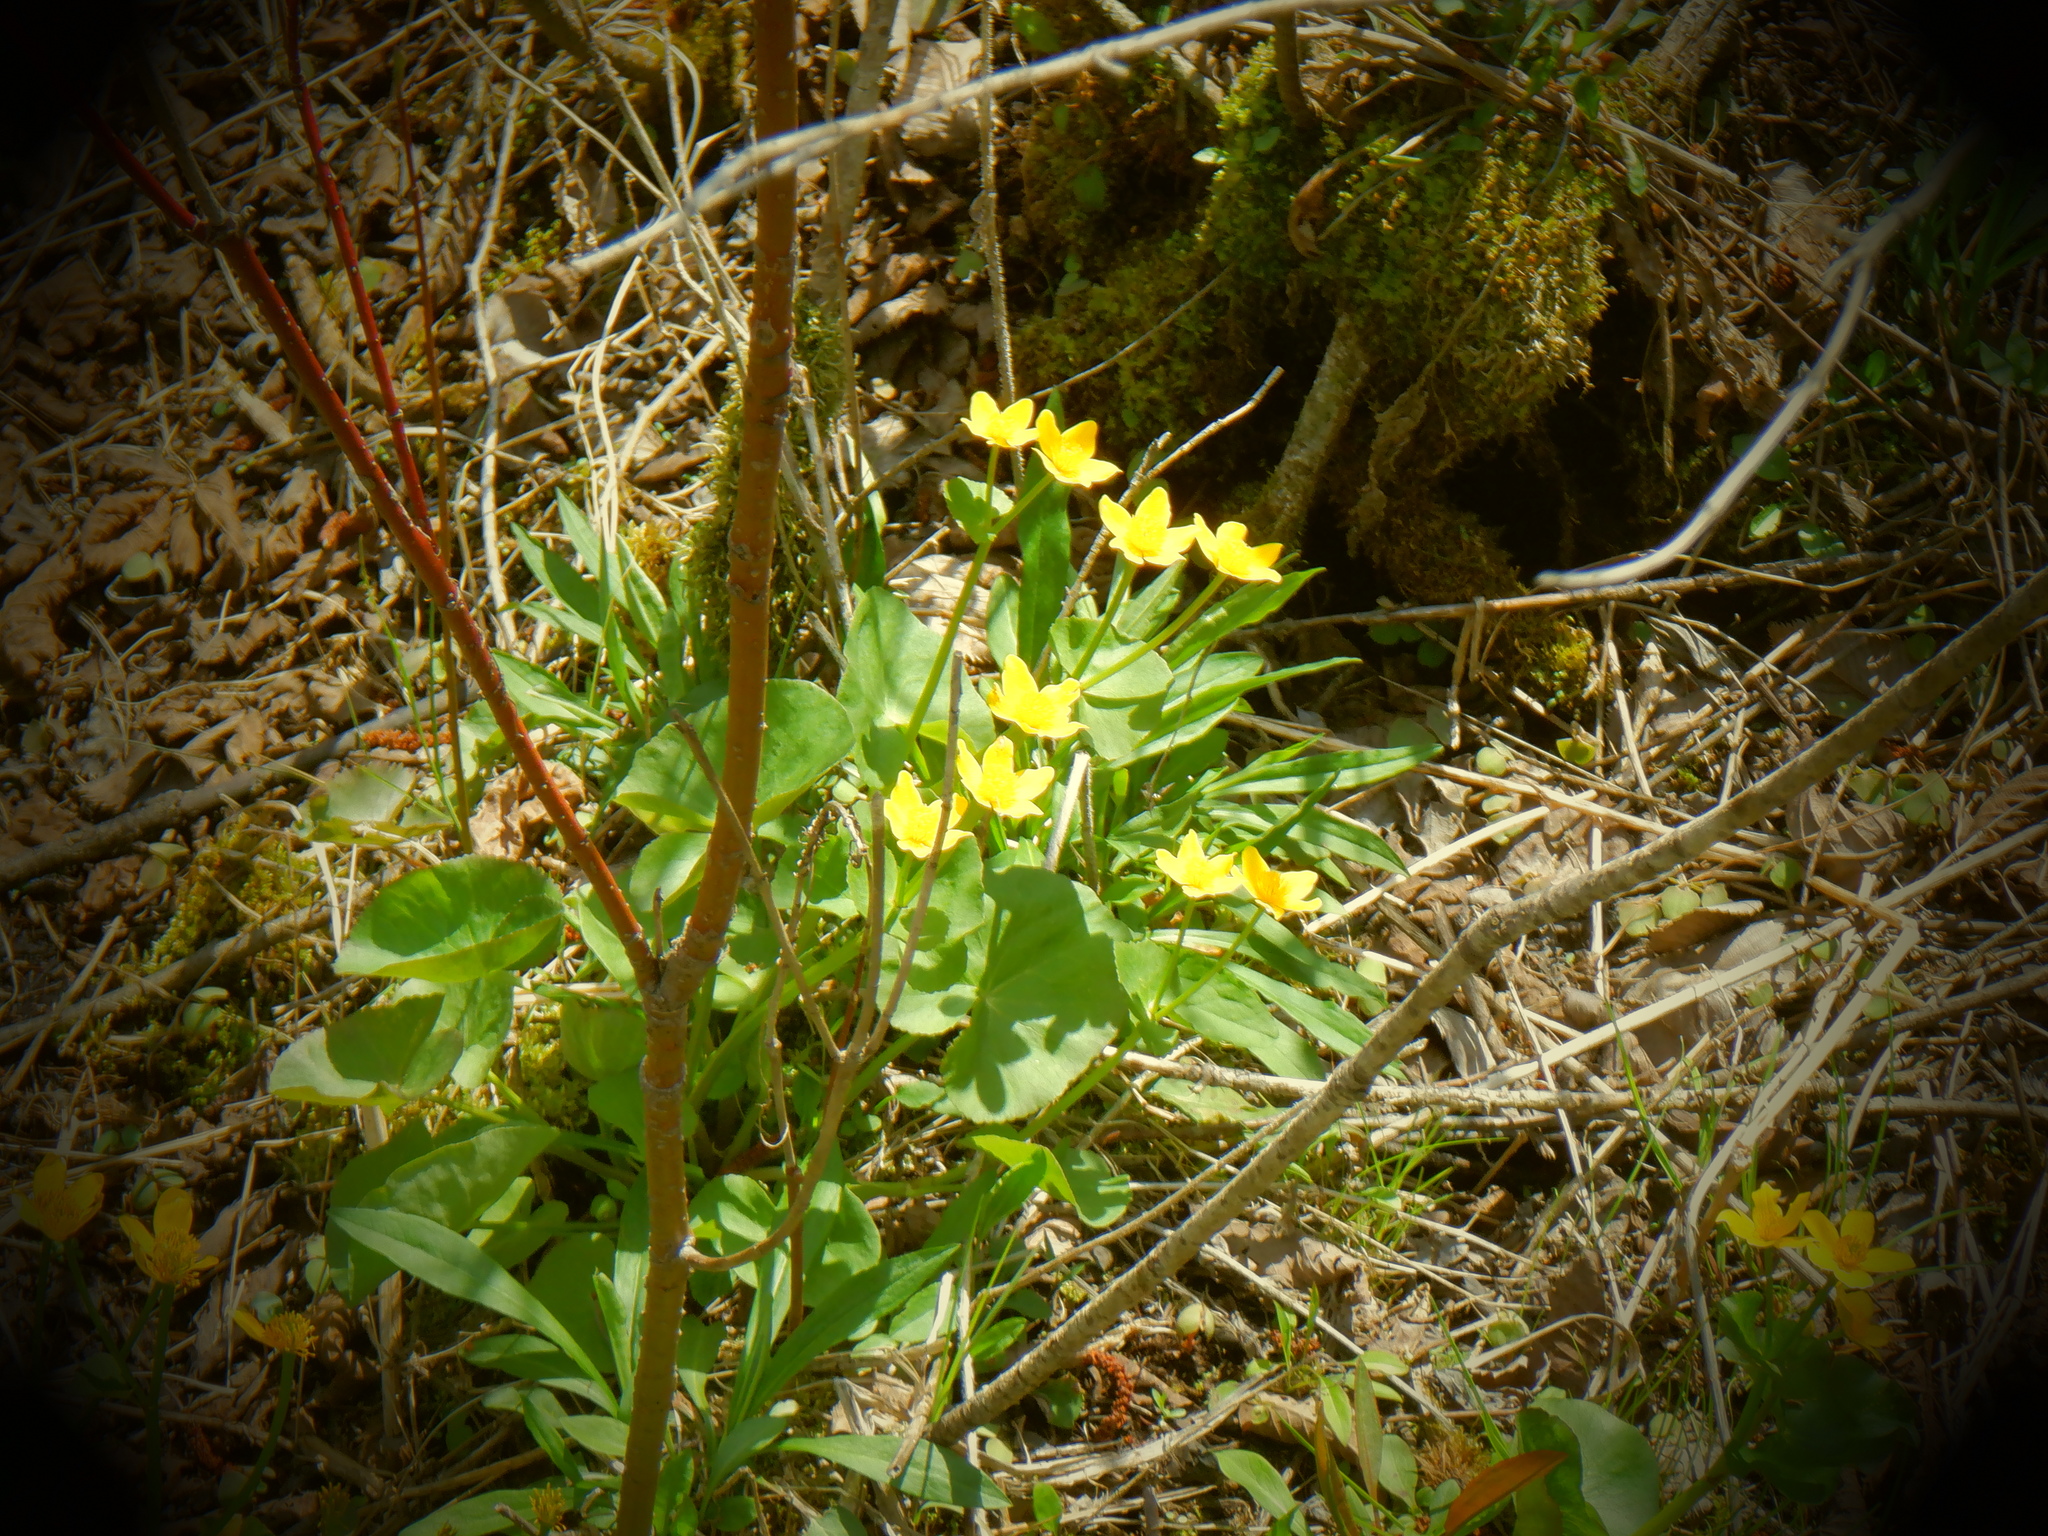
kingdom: Plantae
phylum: Tracheophyta
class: Magnoliopsida
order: Ranunculales
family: Ranunculaceae
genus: Caltha
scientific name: Caltha palustris
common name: Marsh marigold
